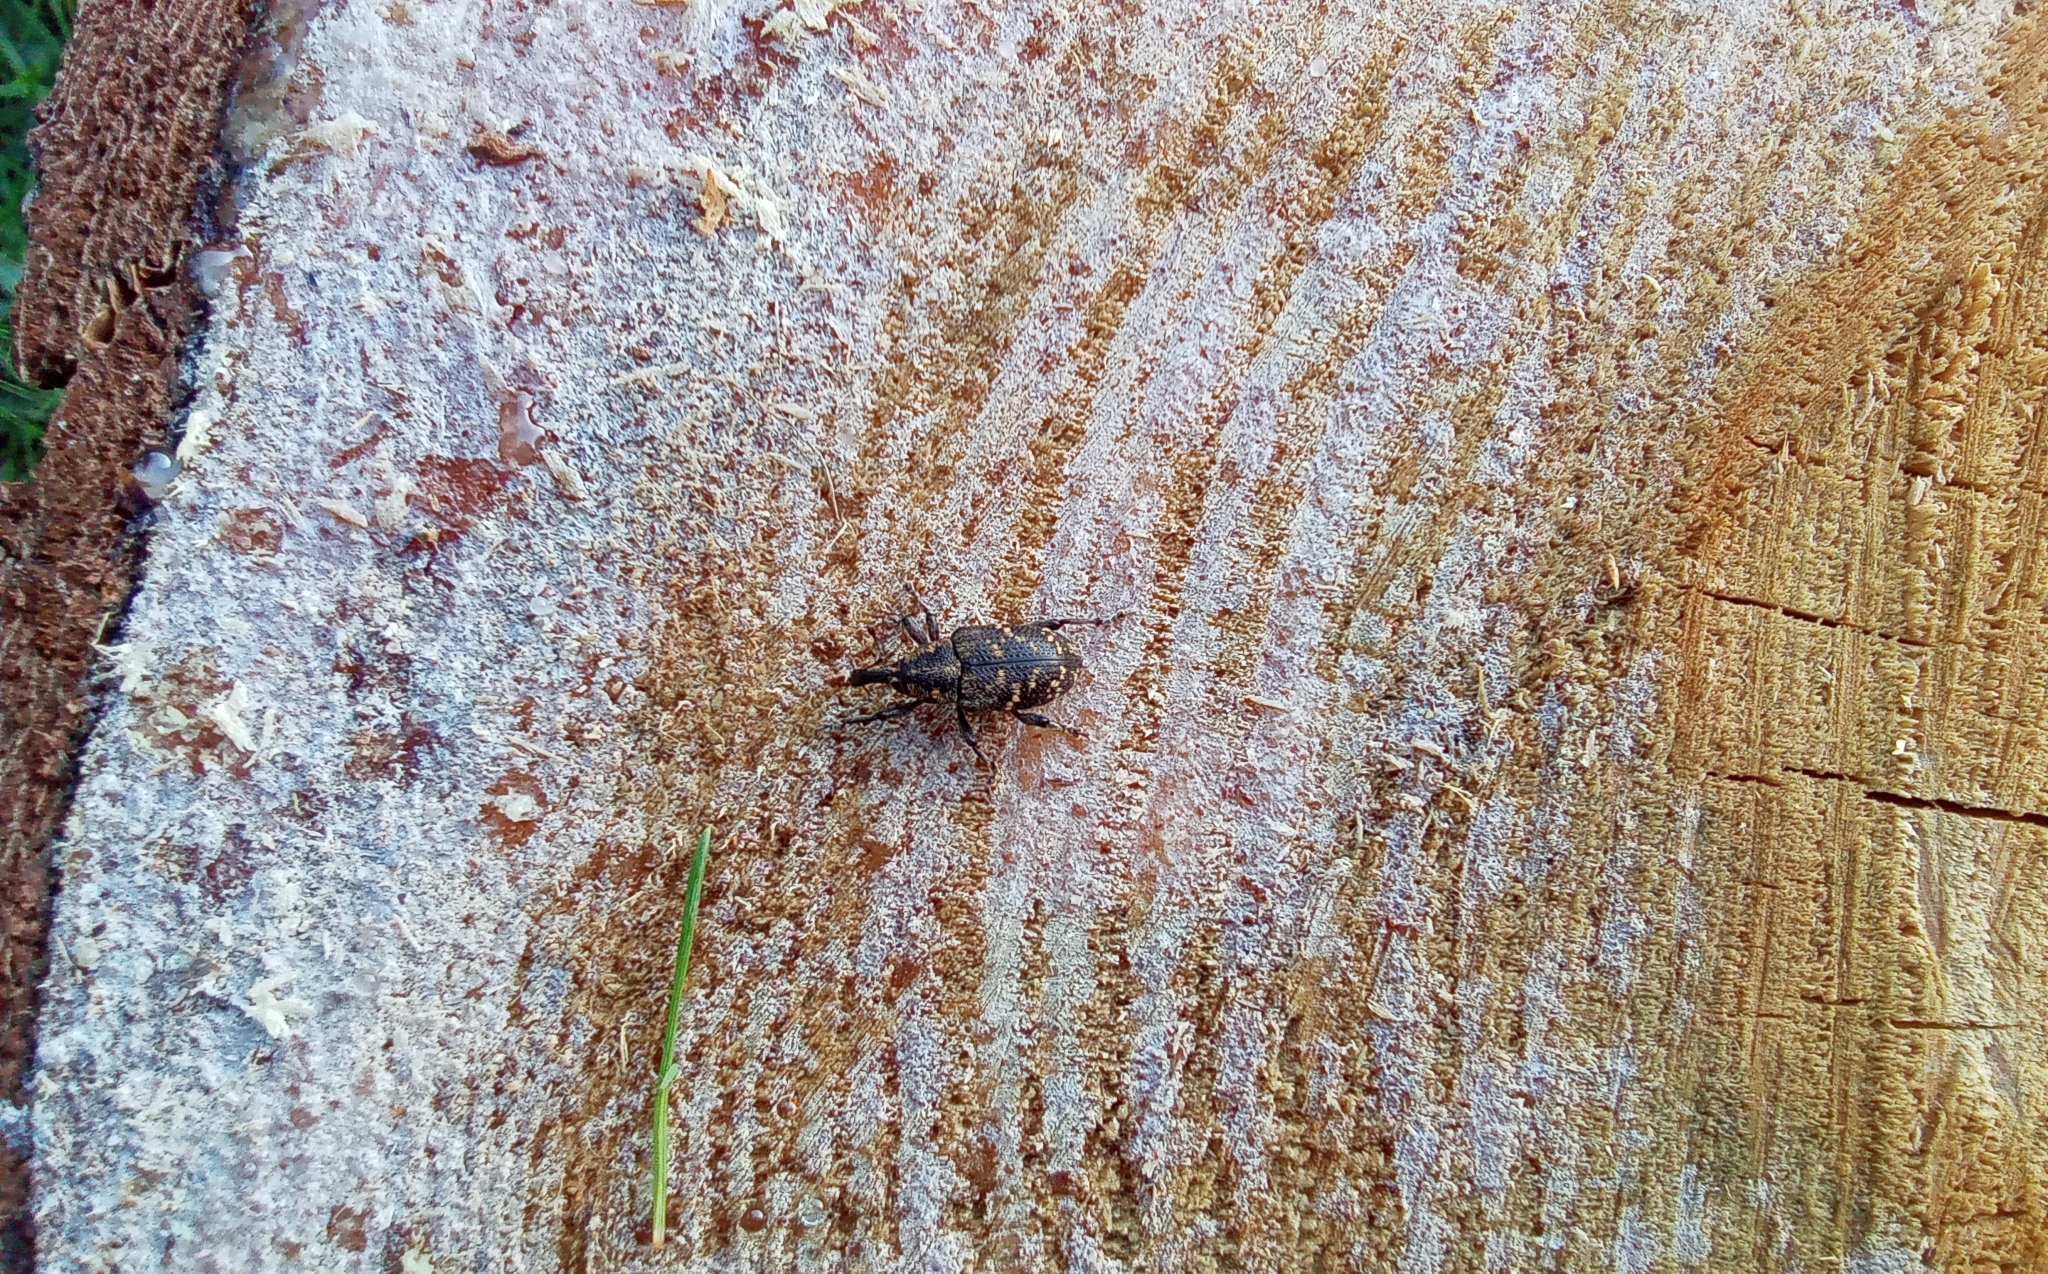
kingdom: Animalia
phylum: Arthropoda
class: Insecta
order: Coleoptera
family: Curculionidae
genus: Hylobius
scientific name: Hylobius abietis
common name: Large pine weevil
